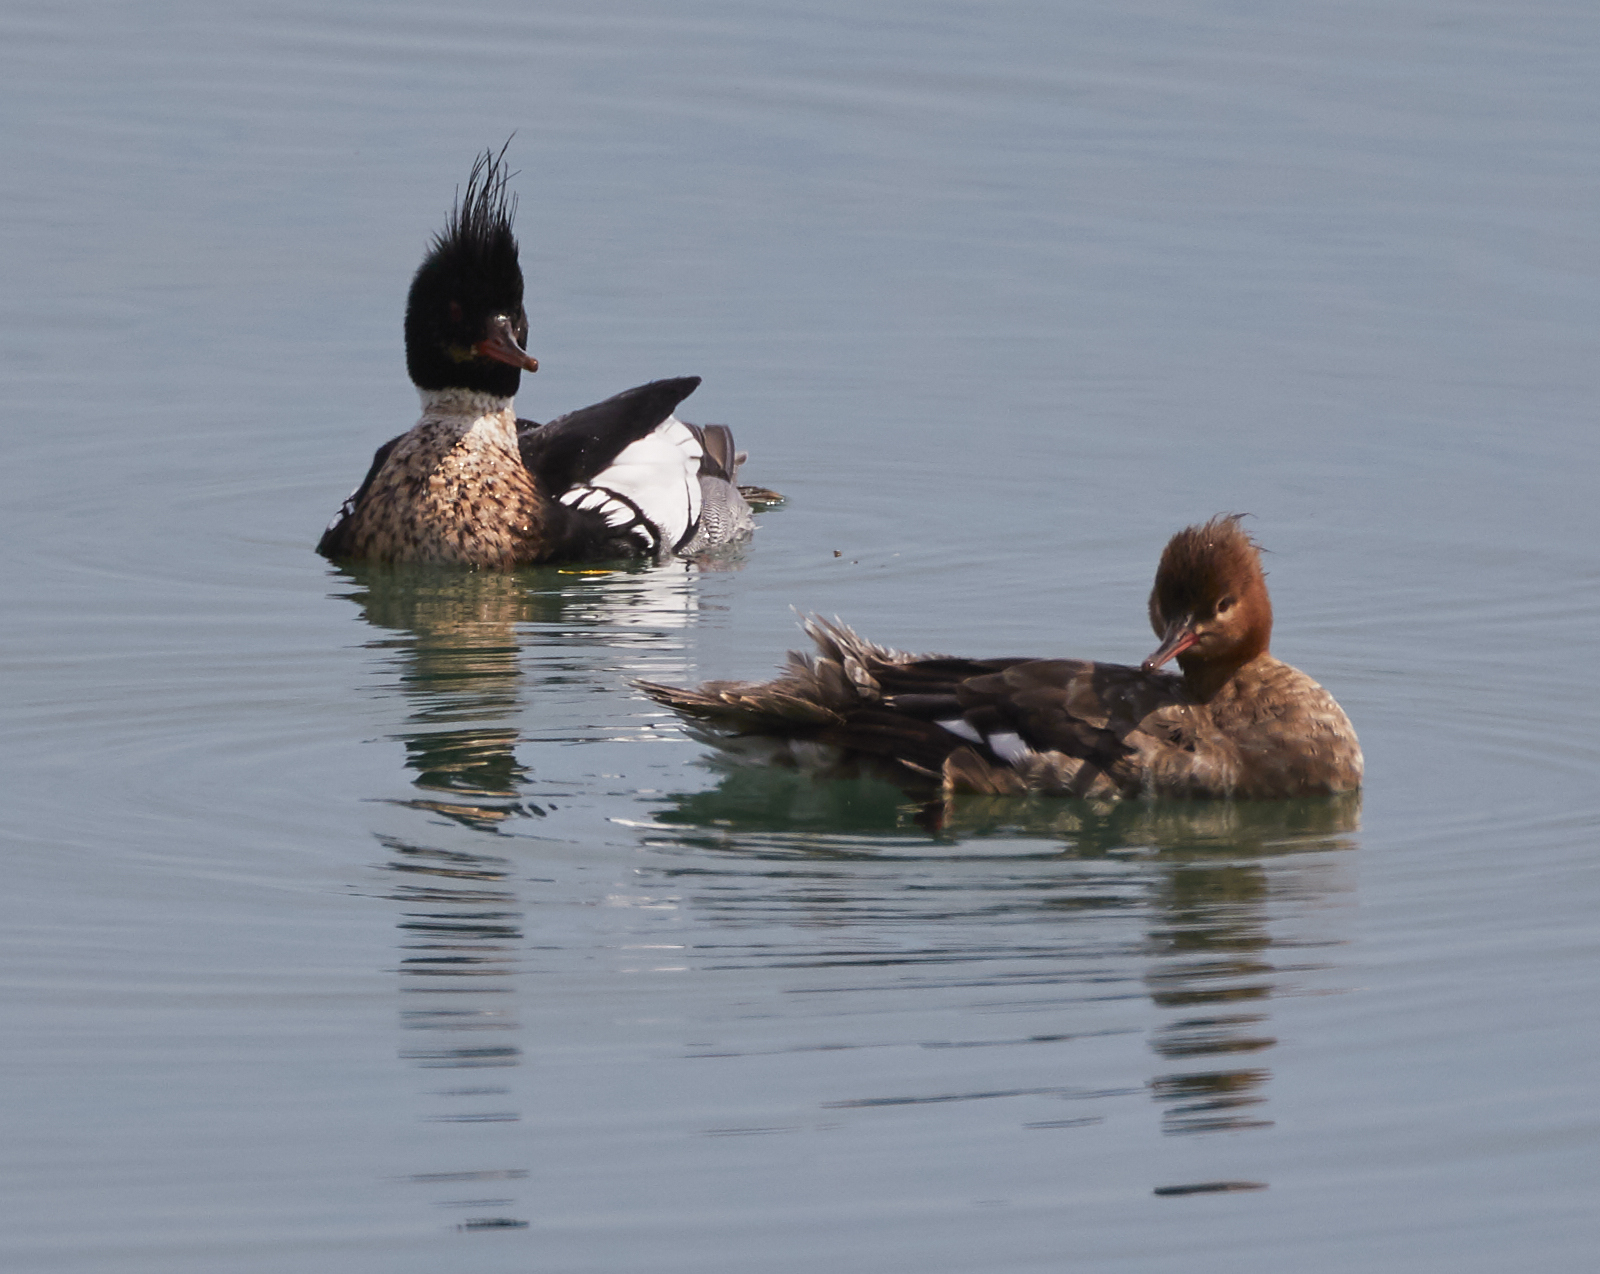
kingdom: Animalia
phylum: Chordata
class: Aves
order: Anseriformes
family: Anatidae
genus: Mergus
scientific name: Mergus serrator
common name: Red-breasted merganser
